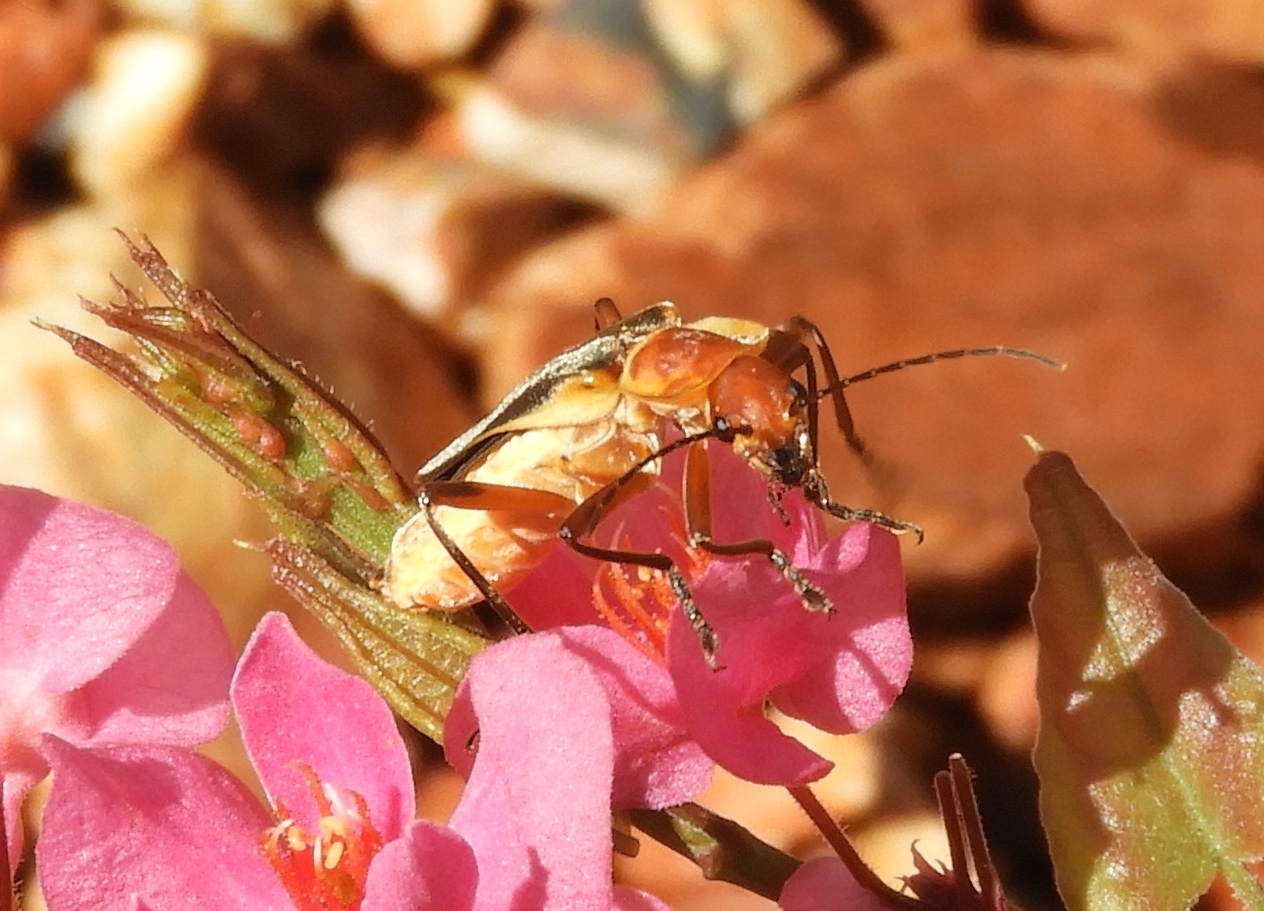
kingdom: Animalia
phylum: Arthropoda
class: Insecta
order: Coleoptera
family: Cantharidae
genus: Chauliognathus
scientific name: Chauliognathus
